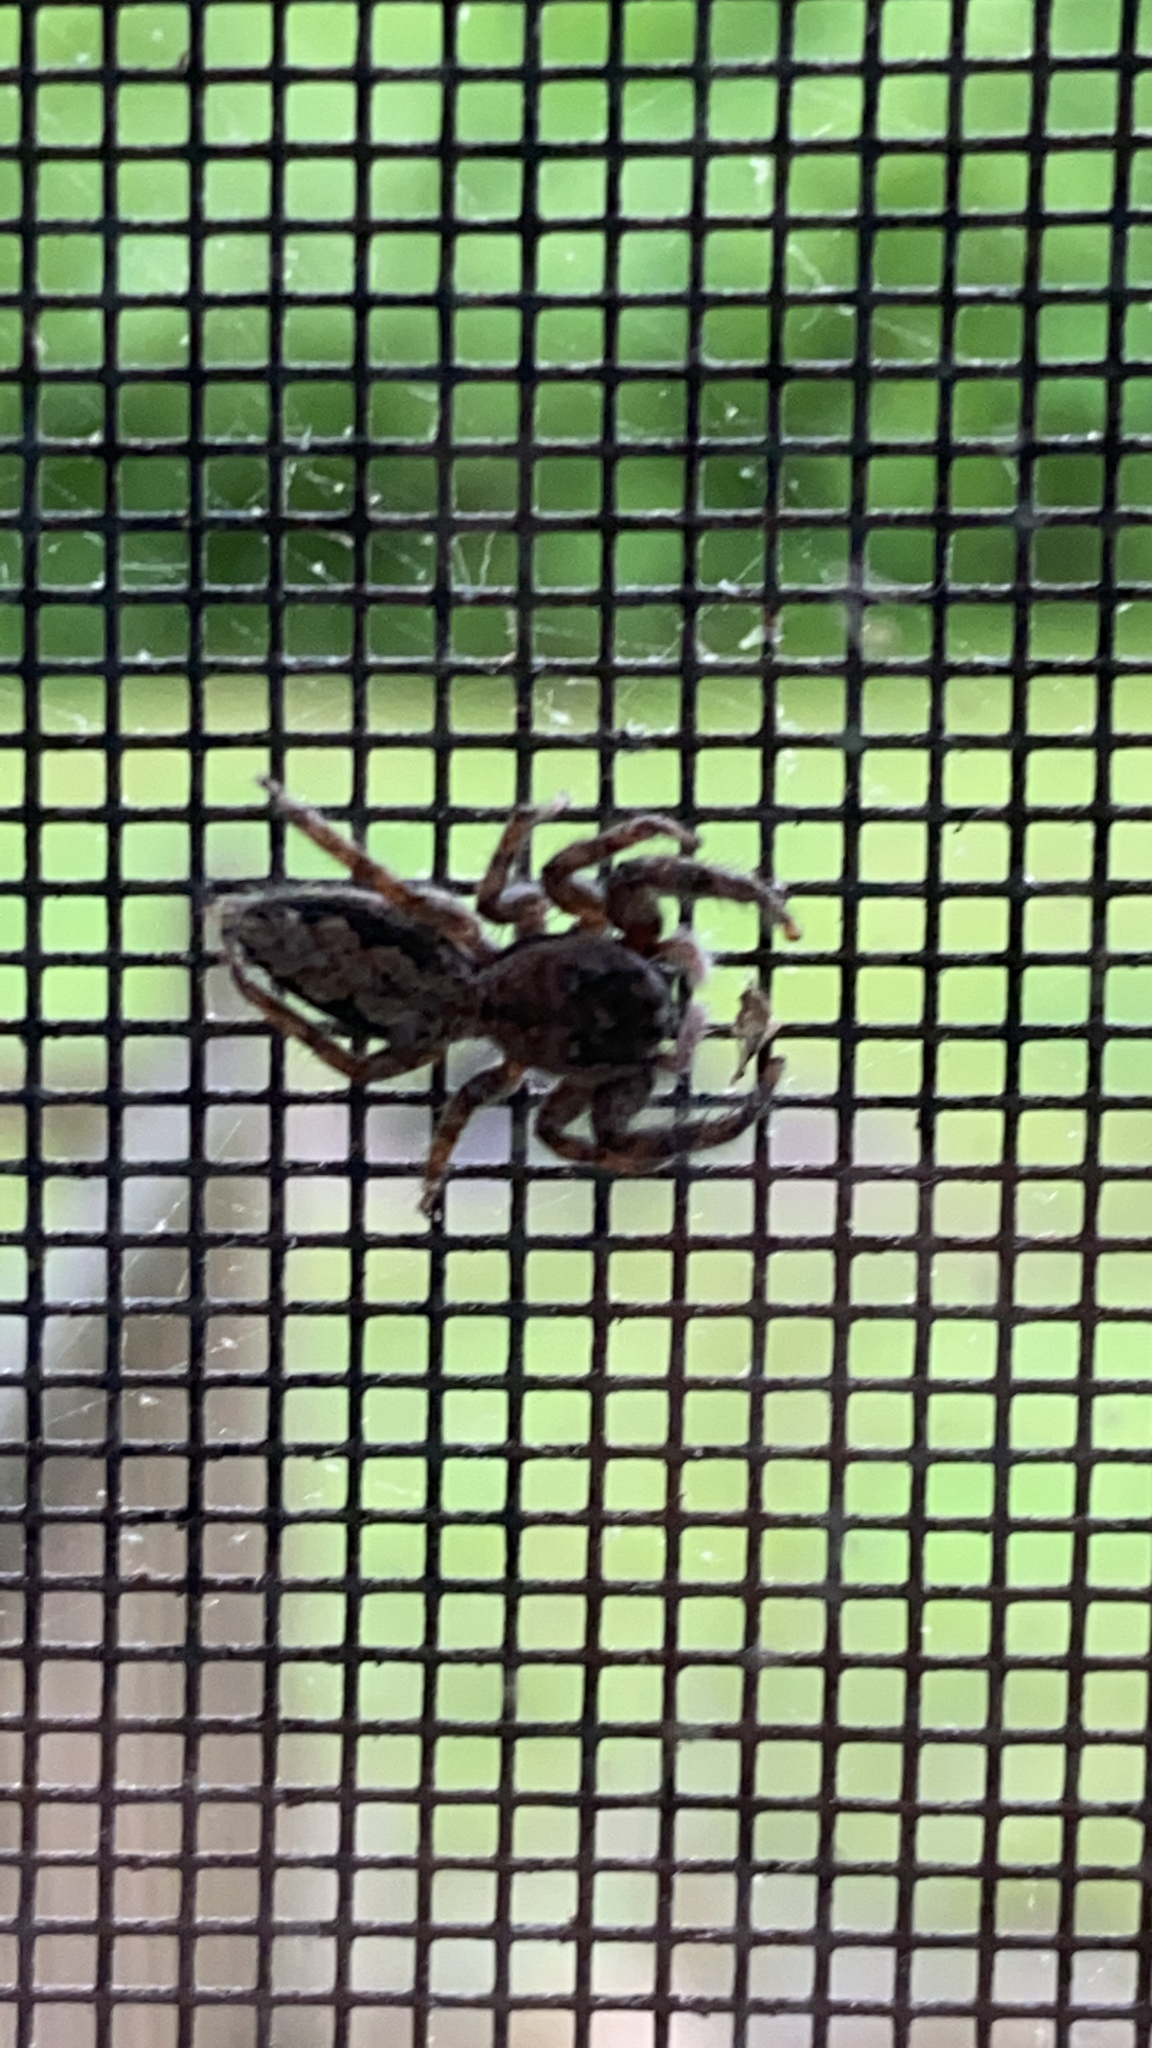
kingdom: Animalia
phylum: Arthropoda
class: Arachnida
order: Araneae
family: Salticidae
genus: Platycryptus
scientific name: Platycryptus undatus
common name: Tan jumping spider
